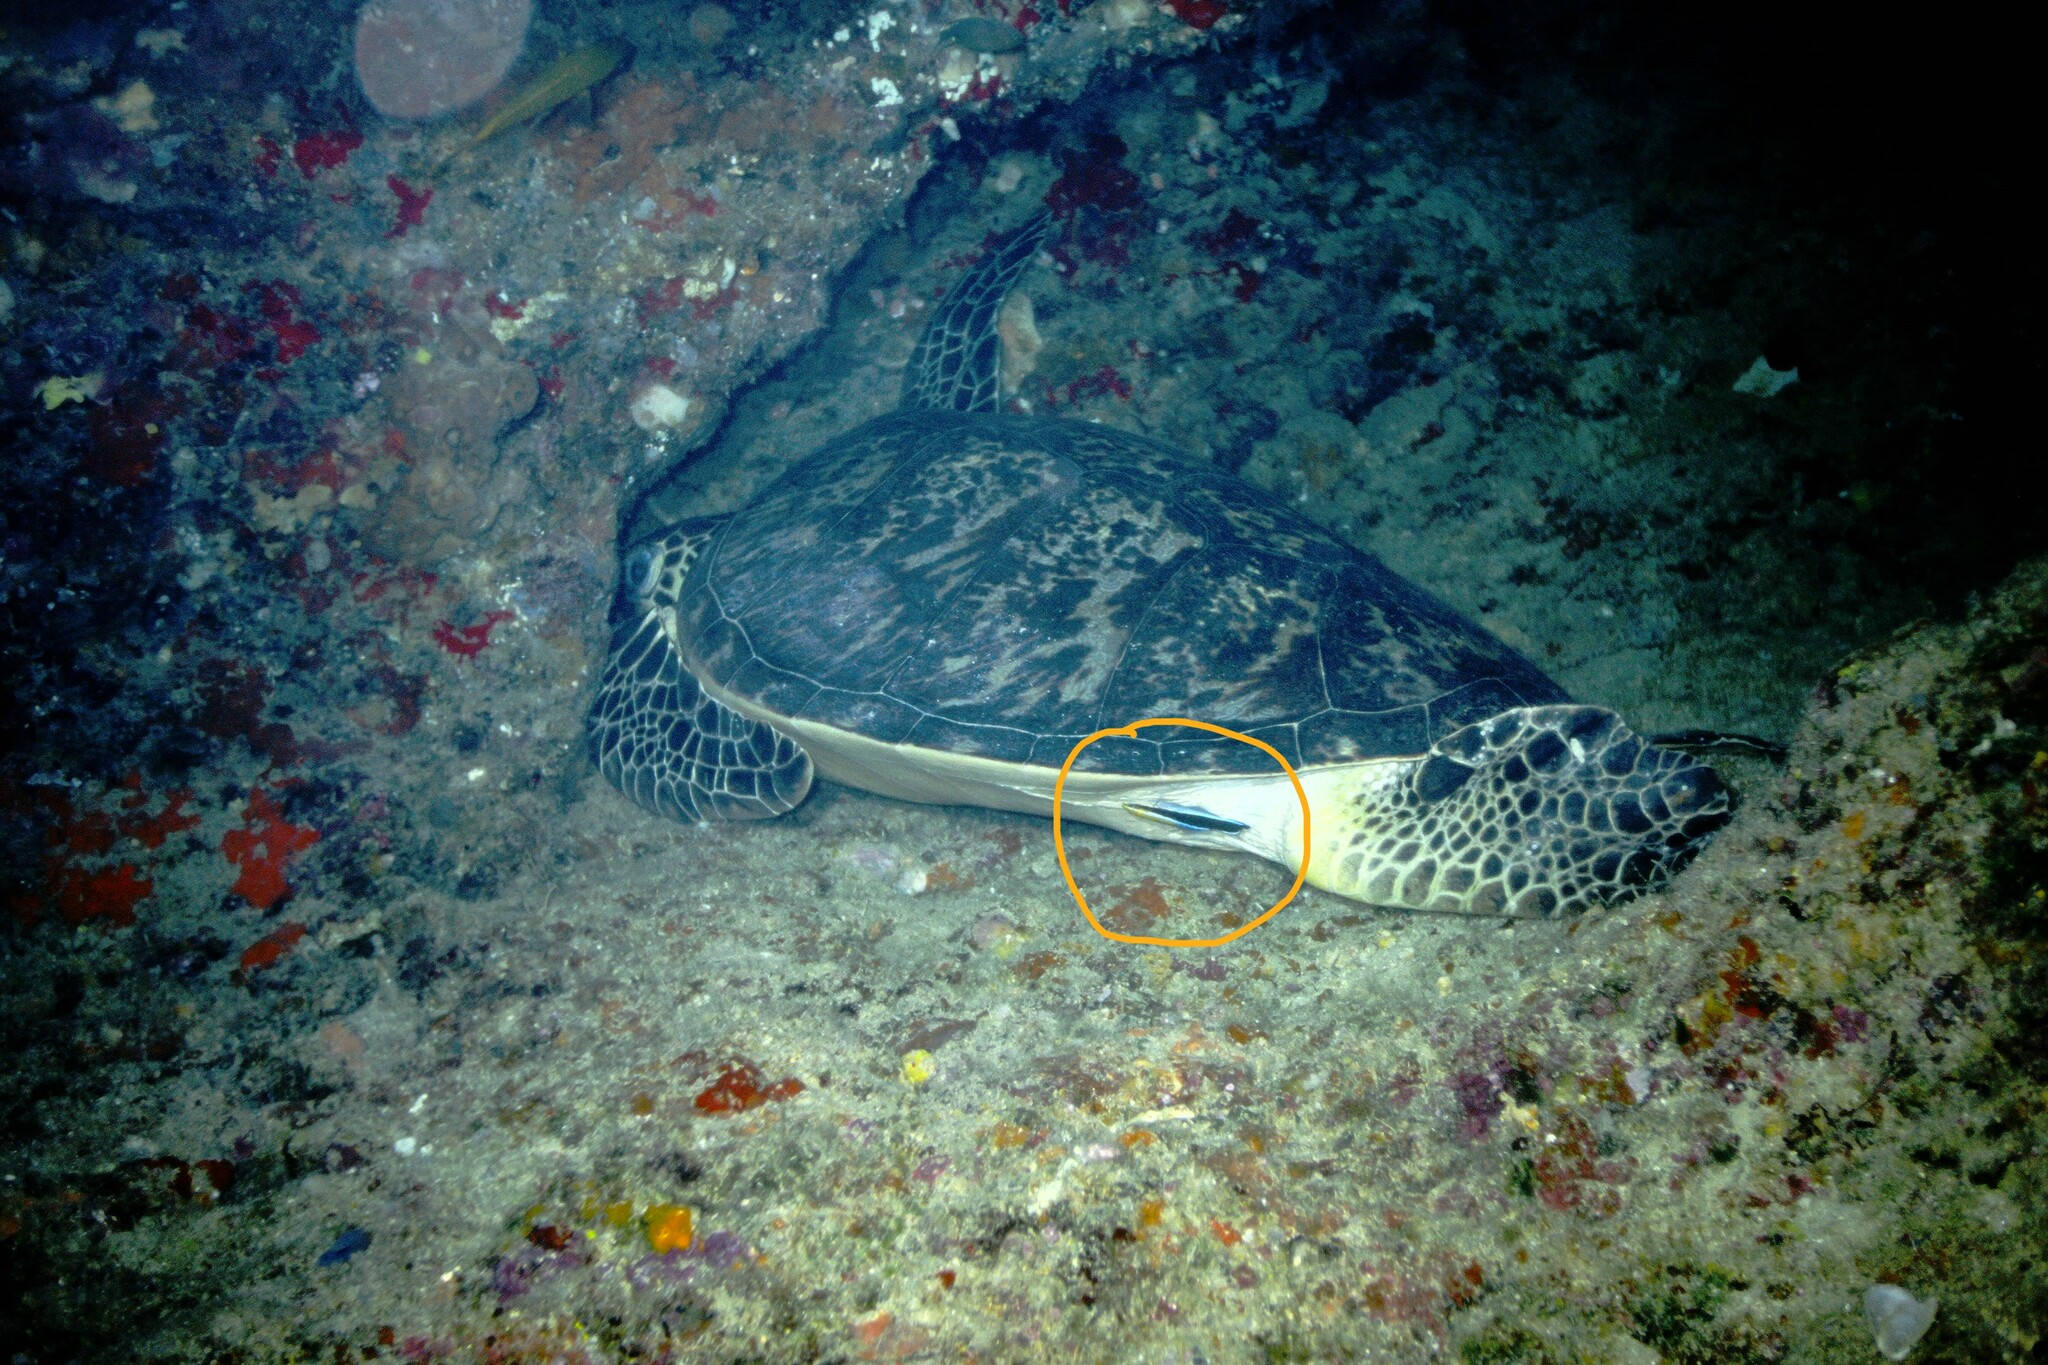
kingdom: Animalia
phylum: Chordata
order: Perciformes
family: Labridae
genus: Labroides
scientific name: Labroides dimidiatus
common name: Blue diesel wrasse
